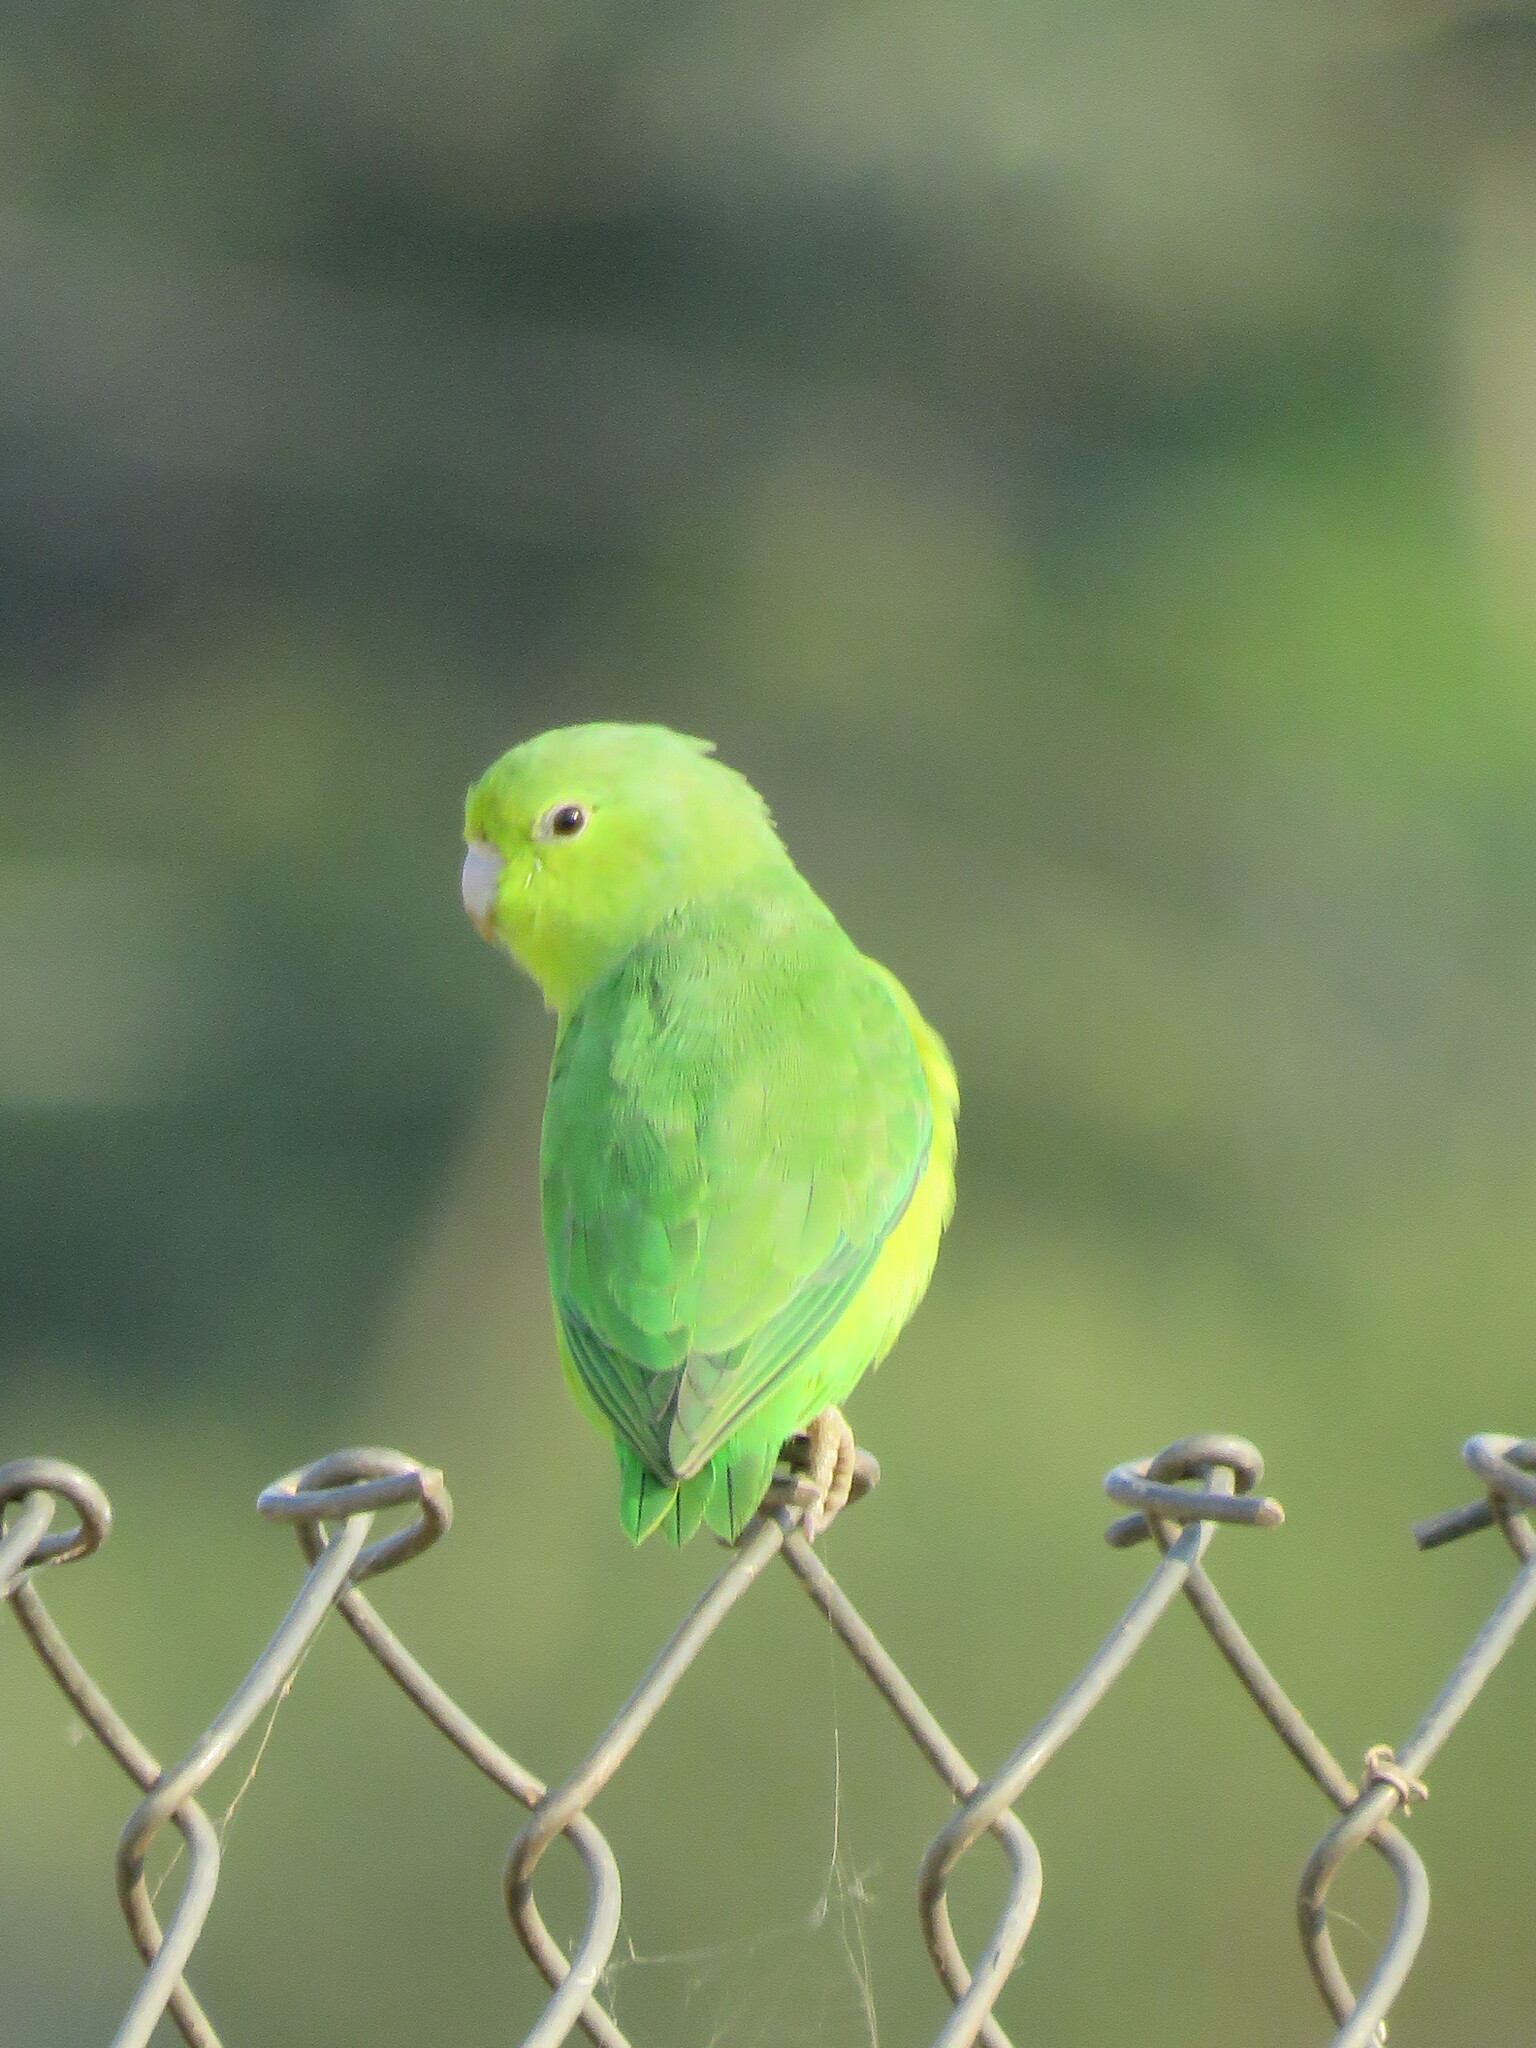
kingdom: Animalia
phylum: Chordata
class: Aves
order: Psittaciformes
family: Psittacidae
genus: Forpus
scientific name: Forpus xanthopterygius
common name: Blue-winged parrotlet
